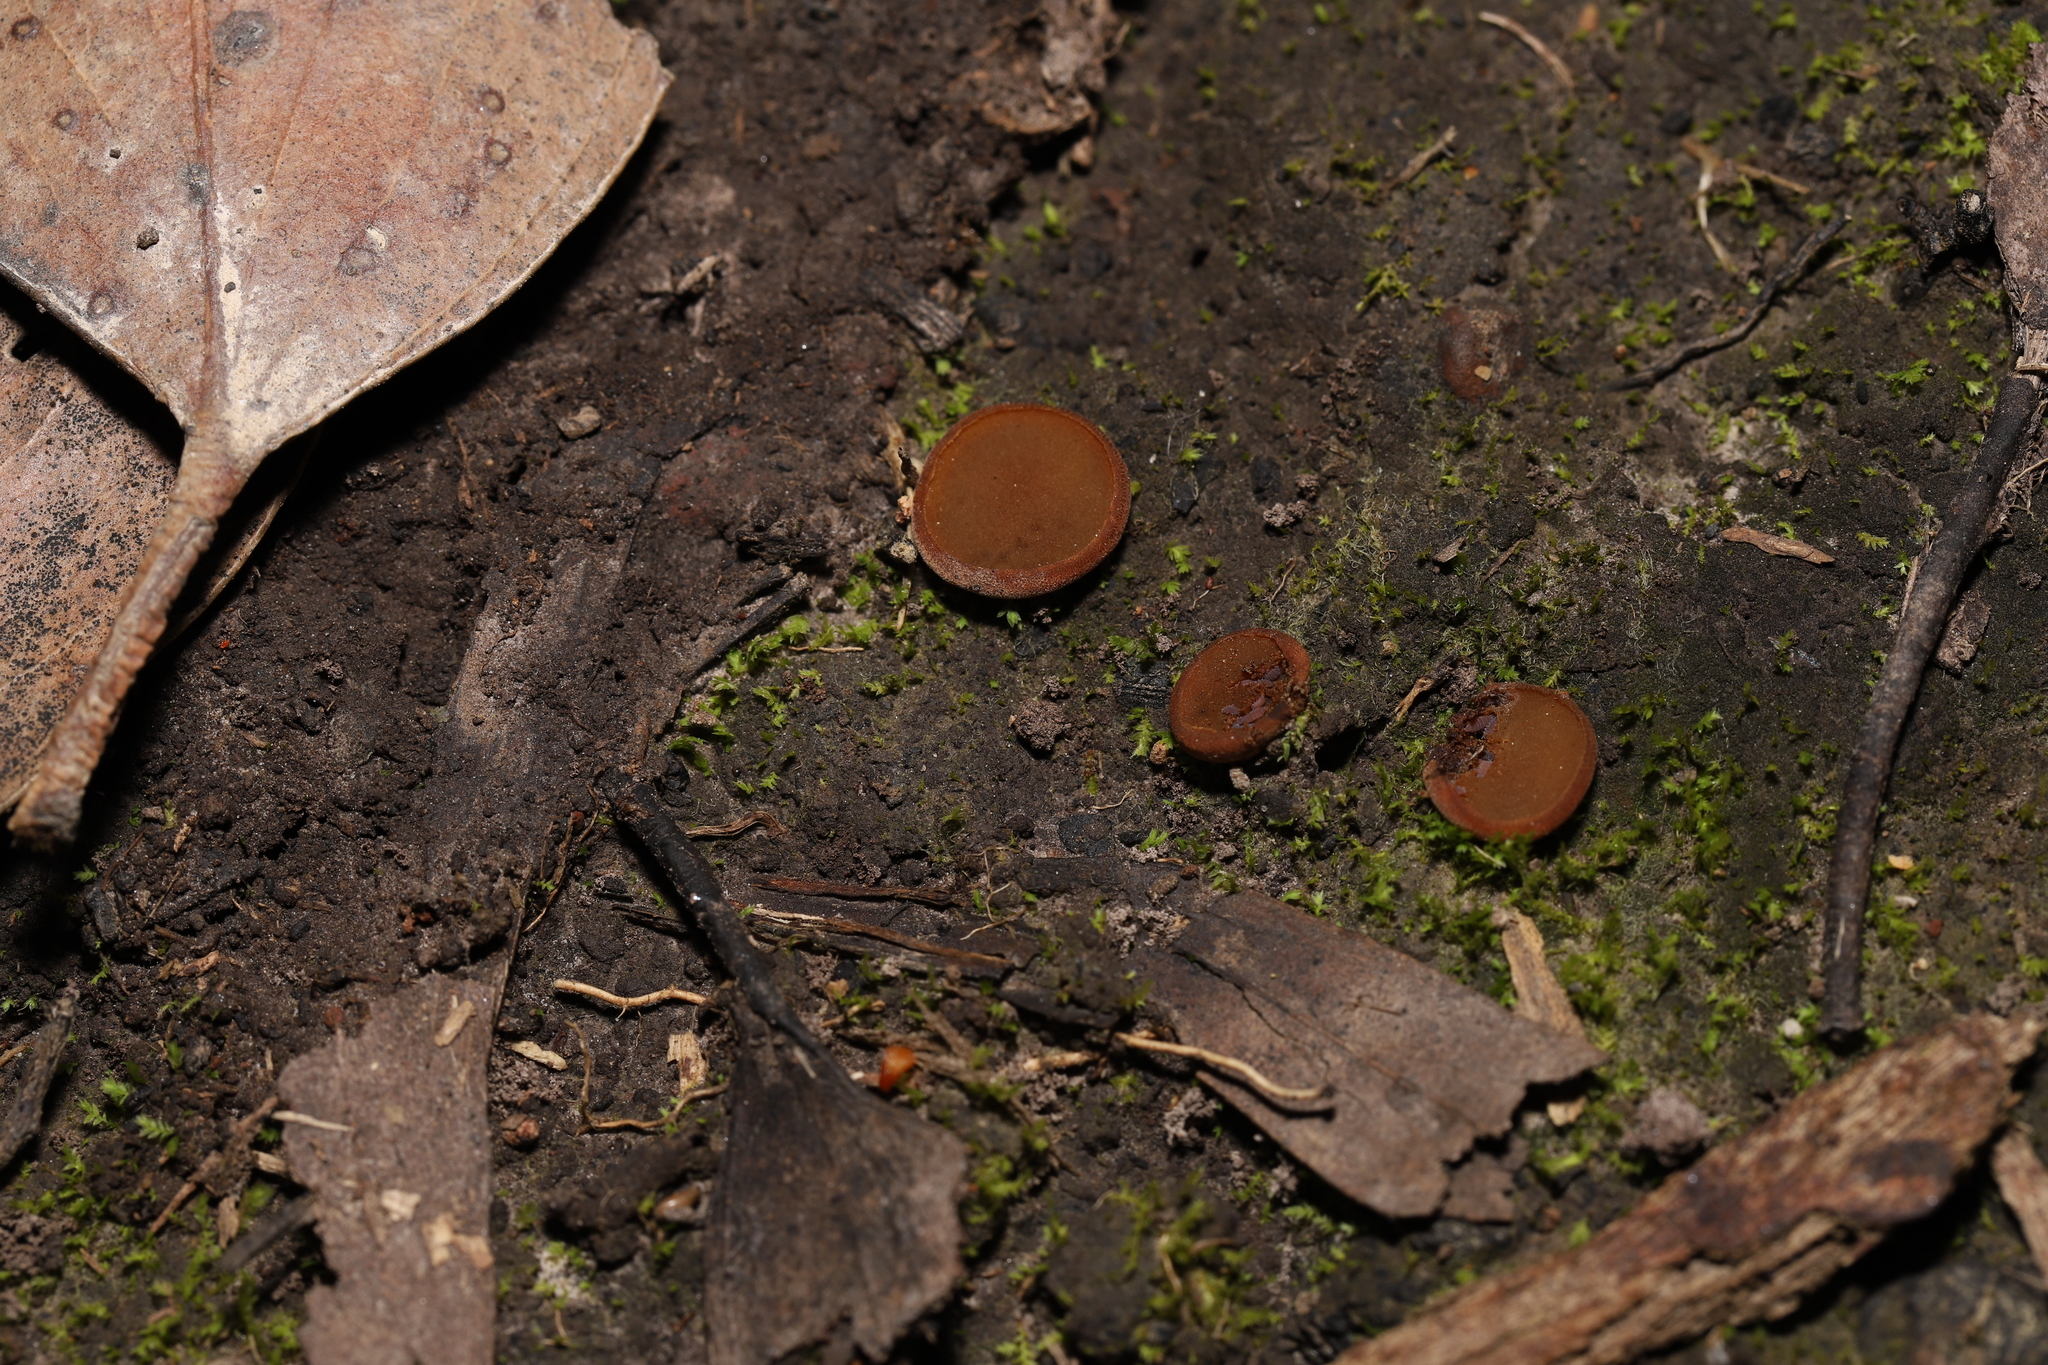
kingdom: Fungi
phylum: Ascomycota
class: Pezizomycetes
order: Pezizales
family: Pyronemataceae
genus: Aleurina
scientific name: Aleurina ferruginea
